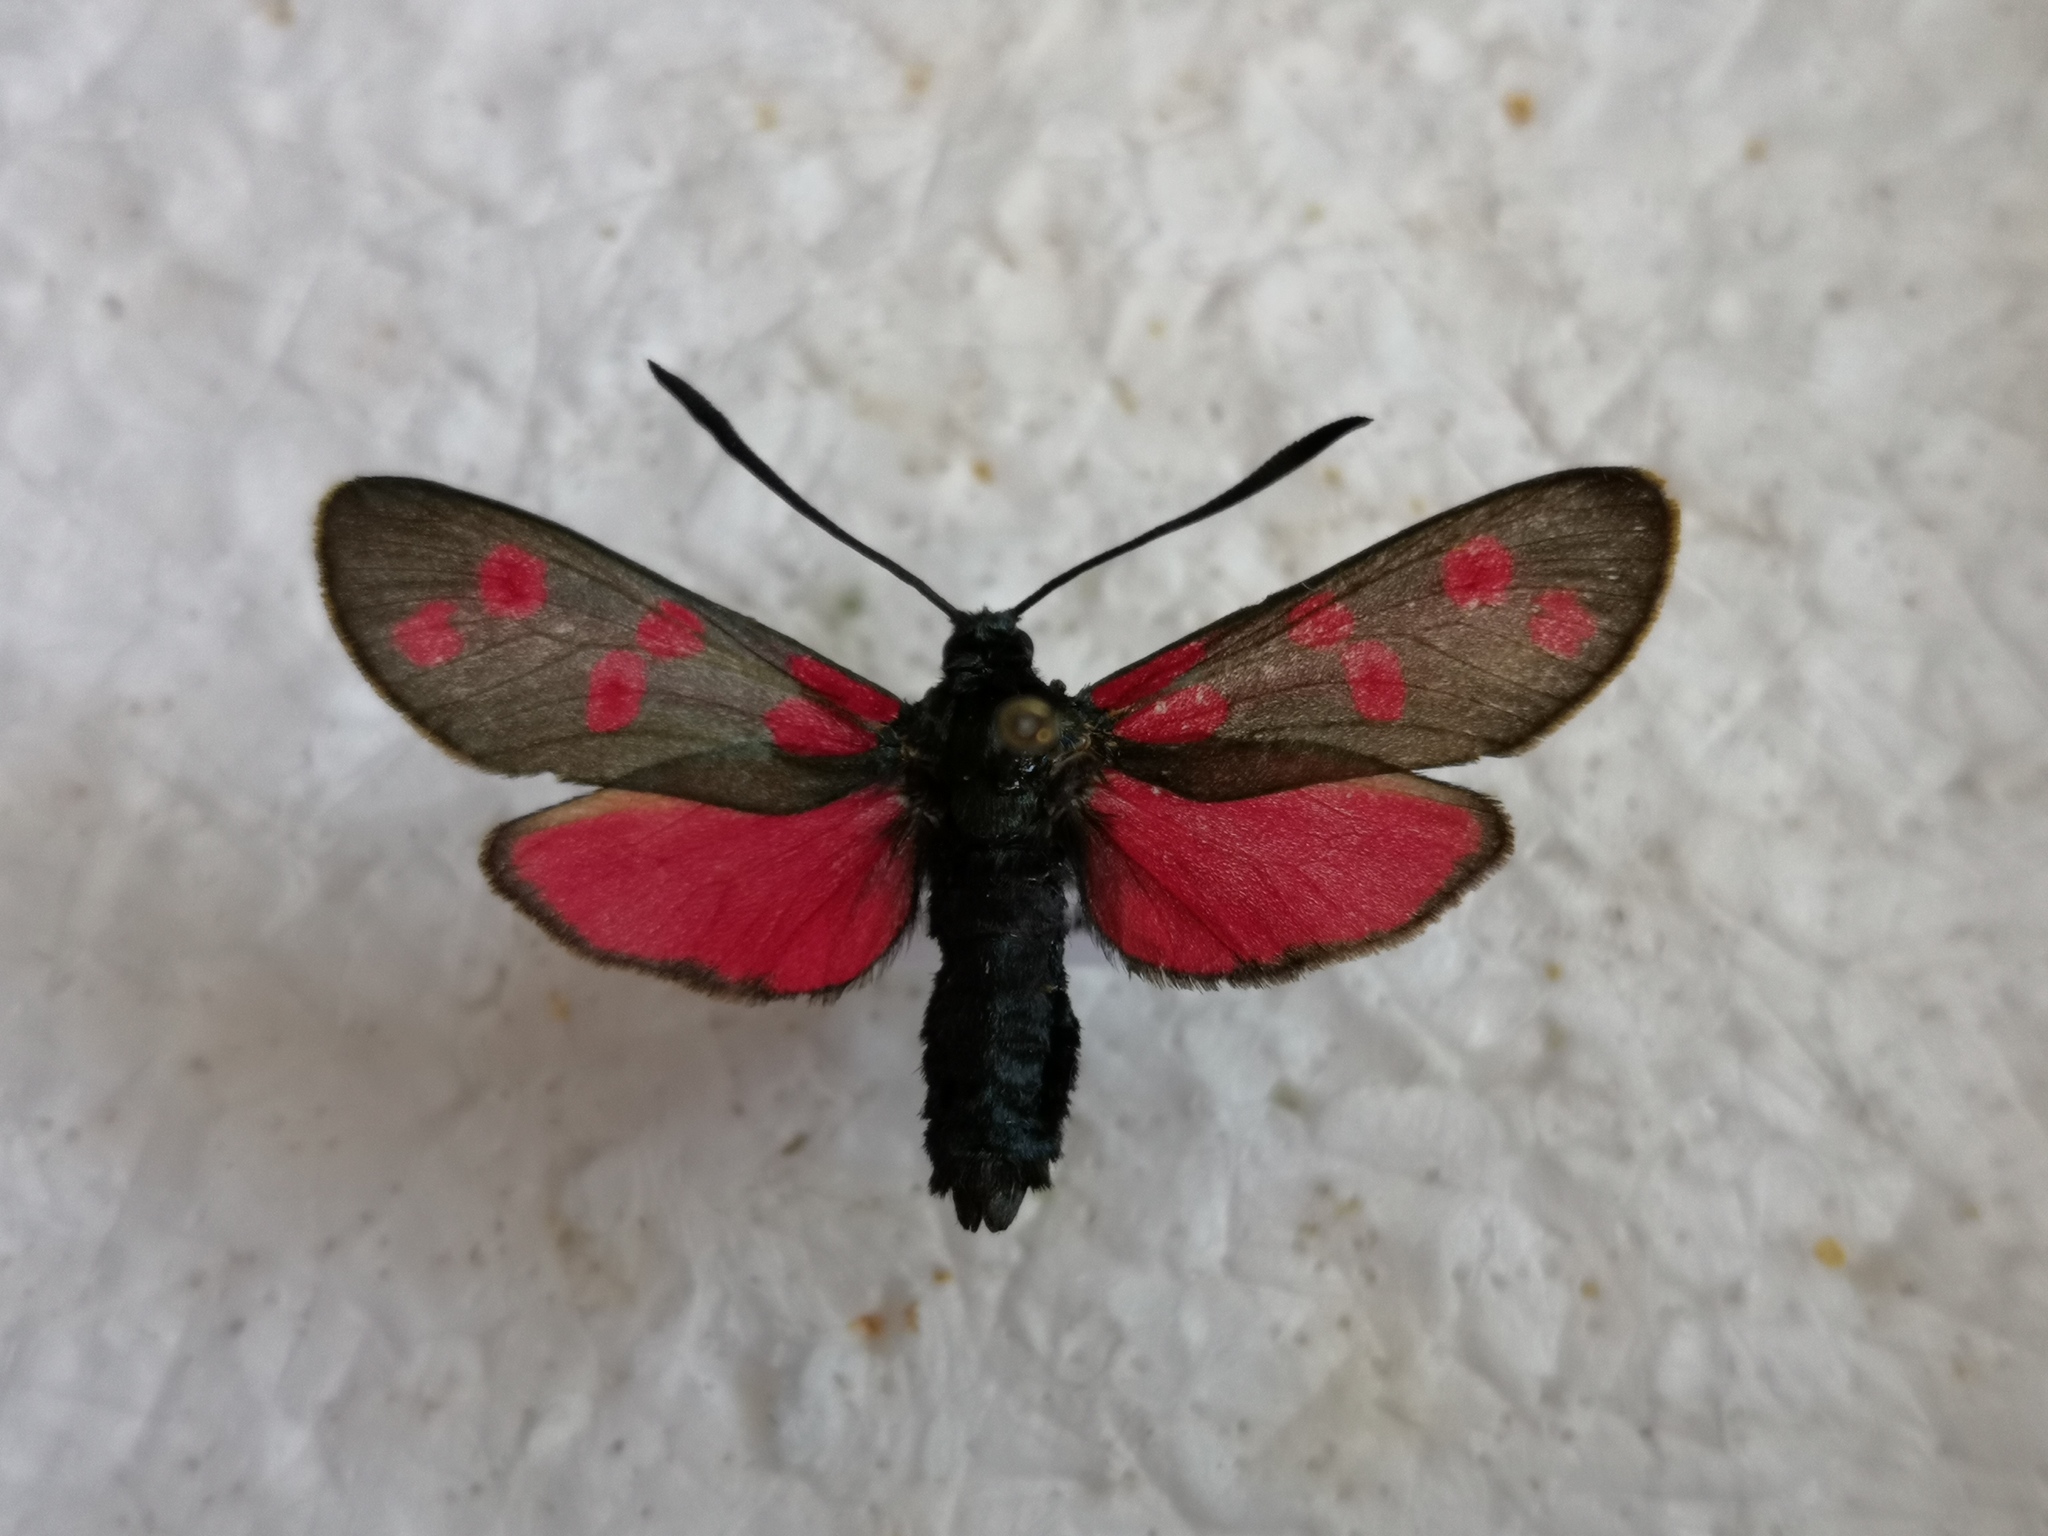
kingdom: Animalia
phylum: Arthropoda
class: Insecta
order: Lepidoptera
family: Zygaenidae
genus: Zygaena
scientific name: Zygaena filipendulae
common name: Six-spot burnet
